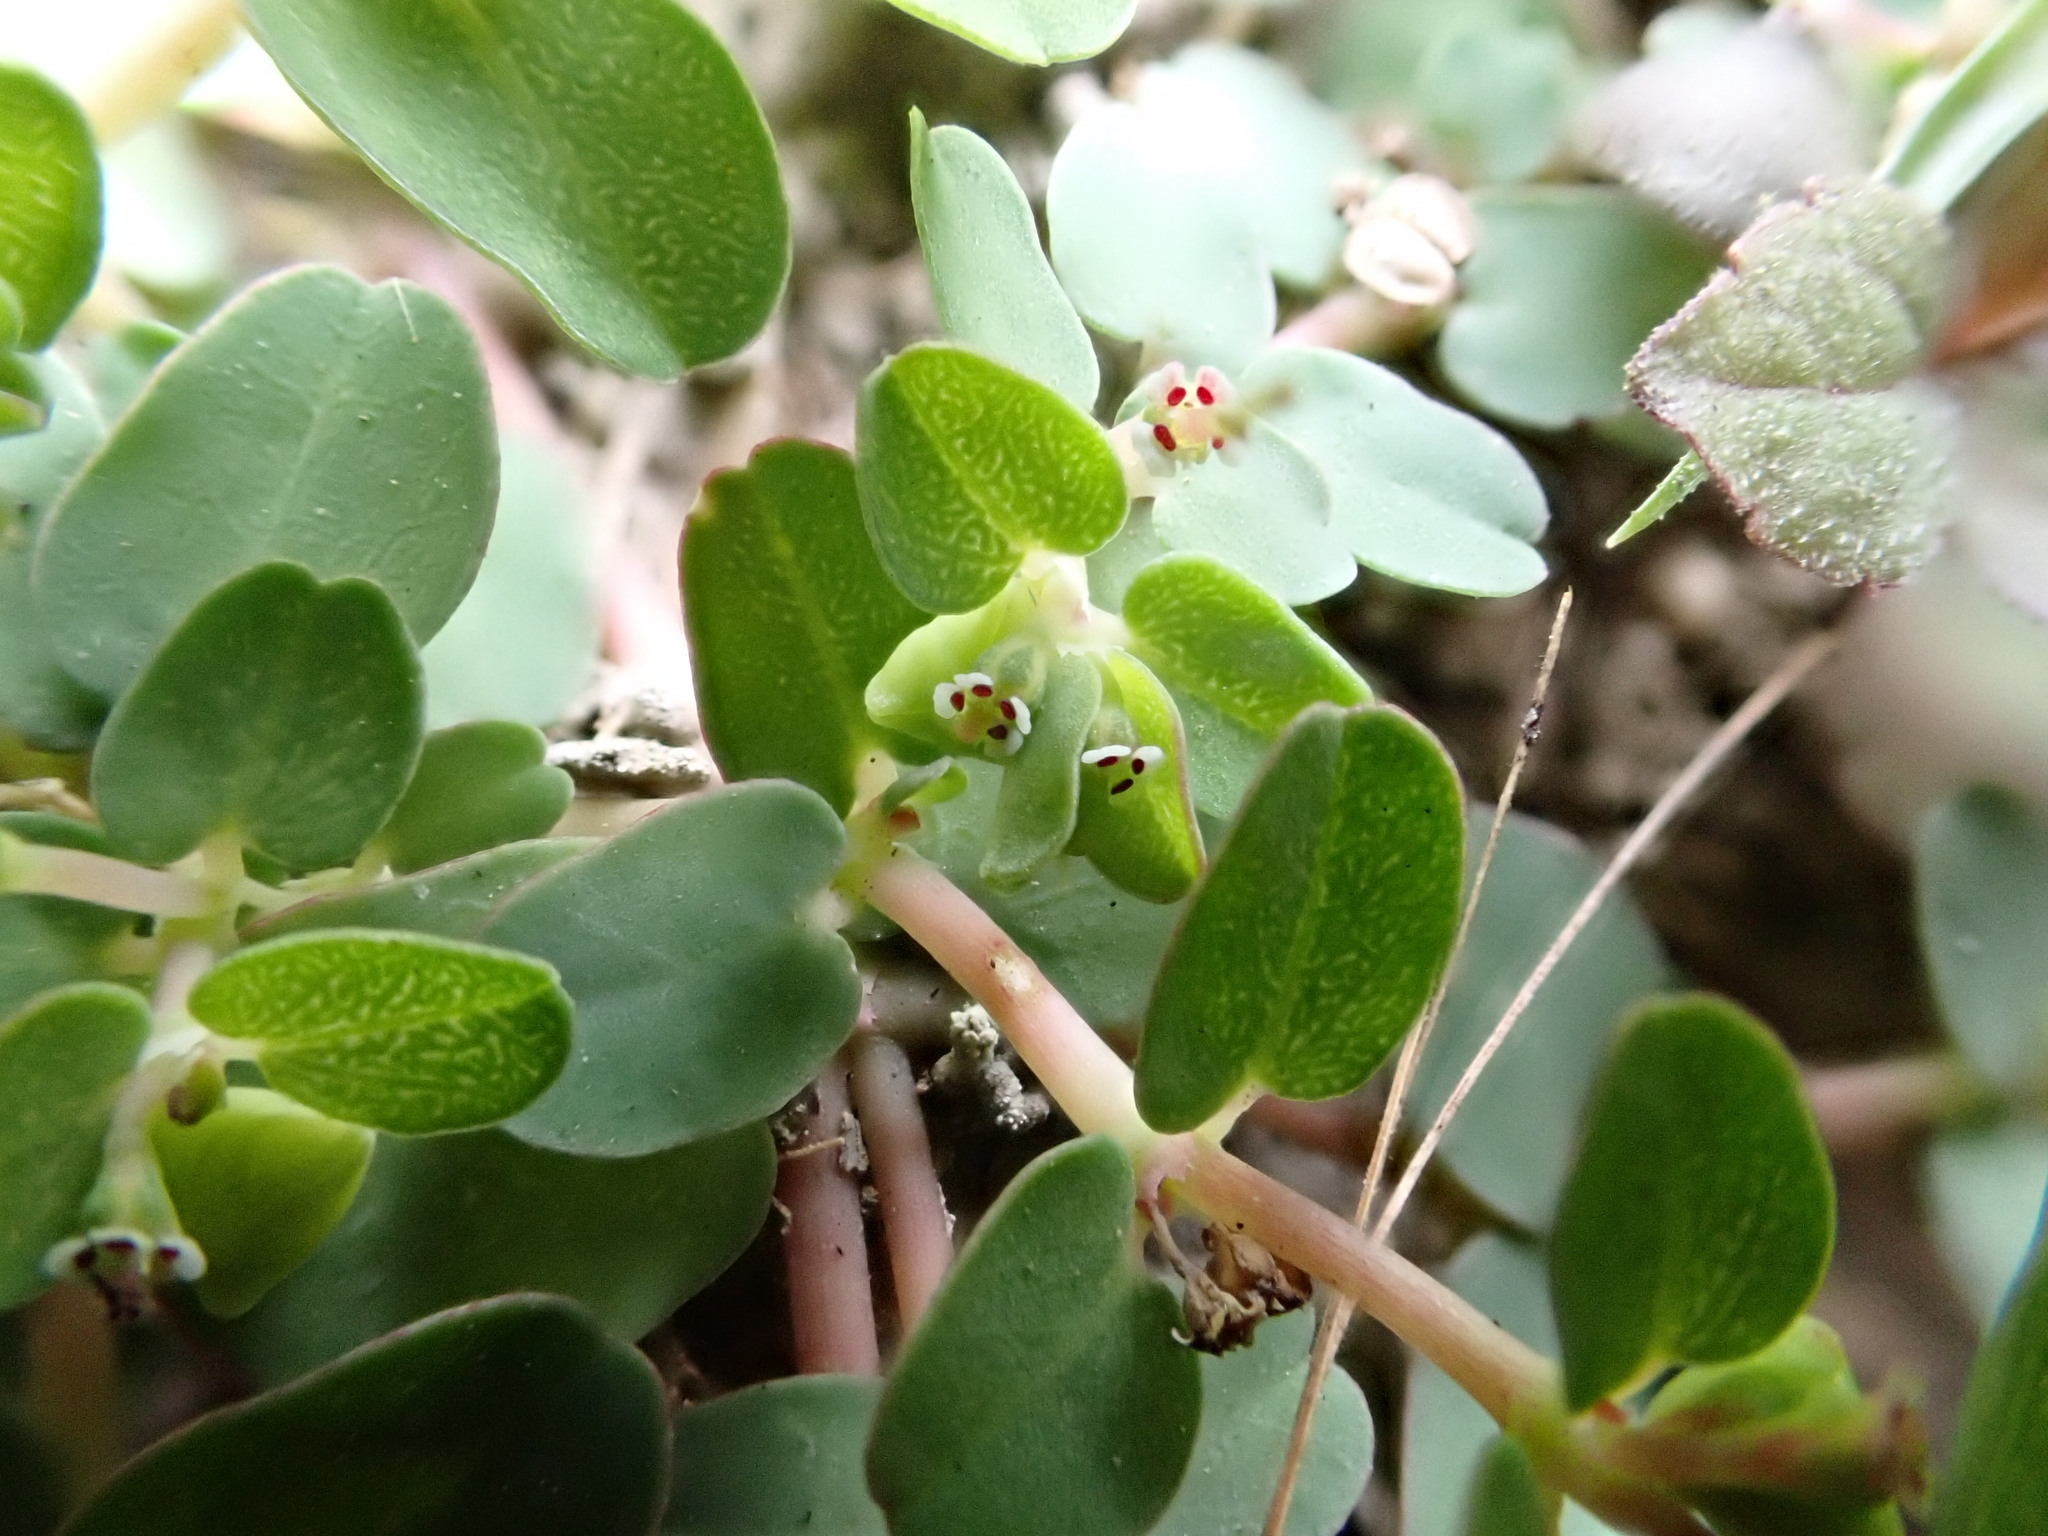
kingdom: Plantae
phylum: Tracheophyta
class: Magnoliopsida
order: Malpighiales
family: Euphorbiaceae
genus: Euphorbia
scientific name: Euphorbia serpens
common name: Matted sandmat
